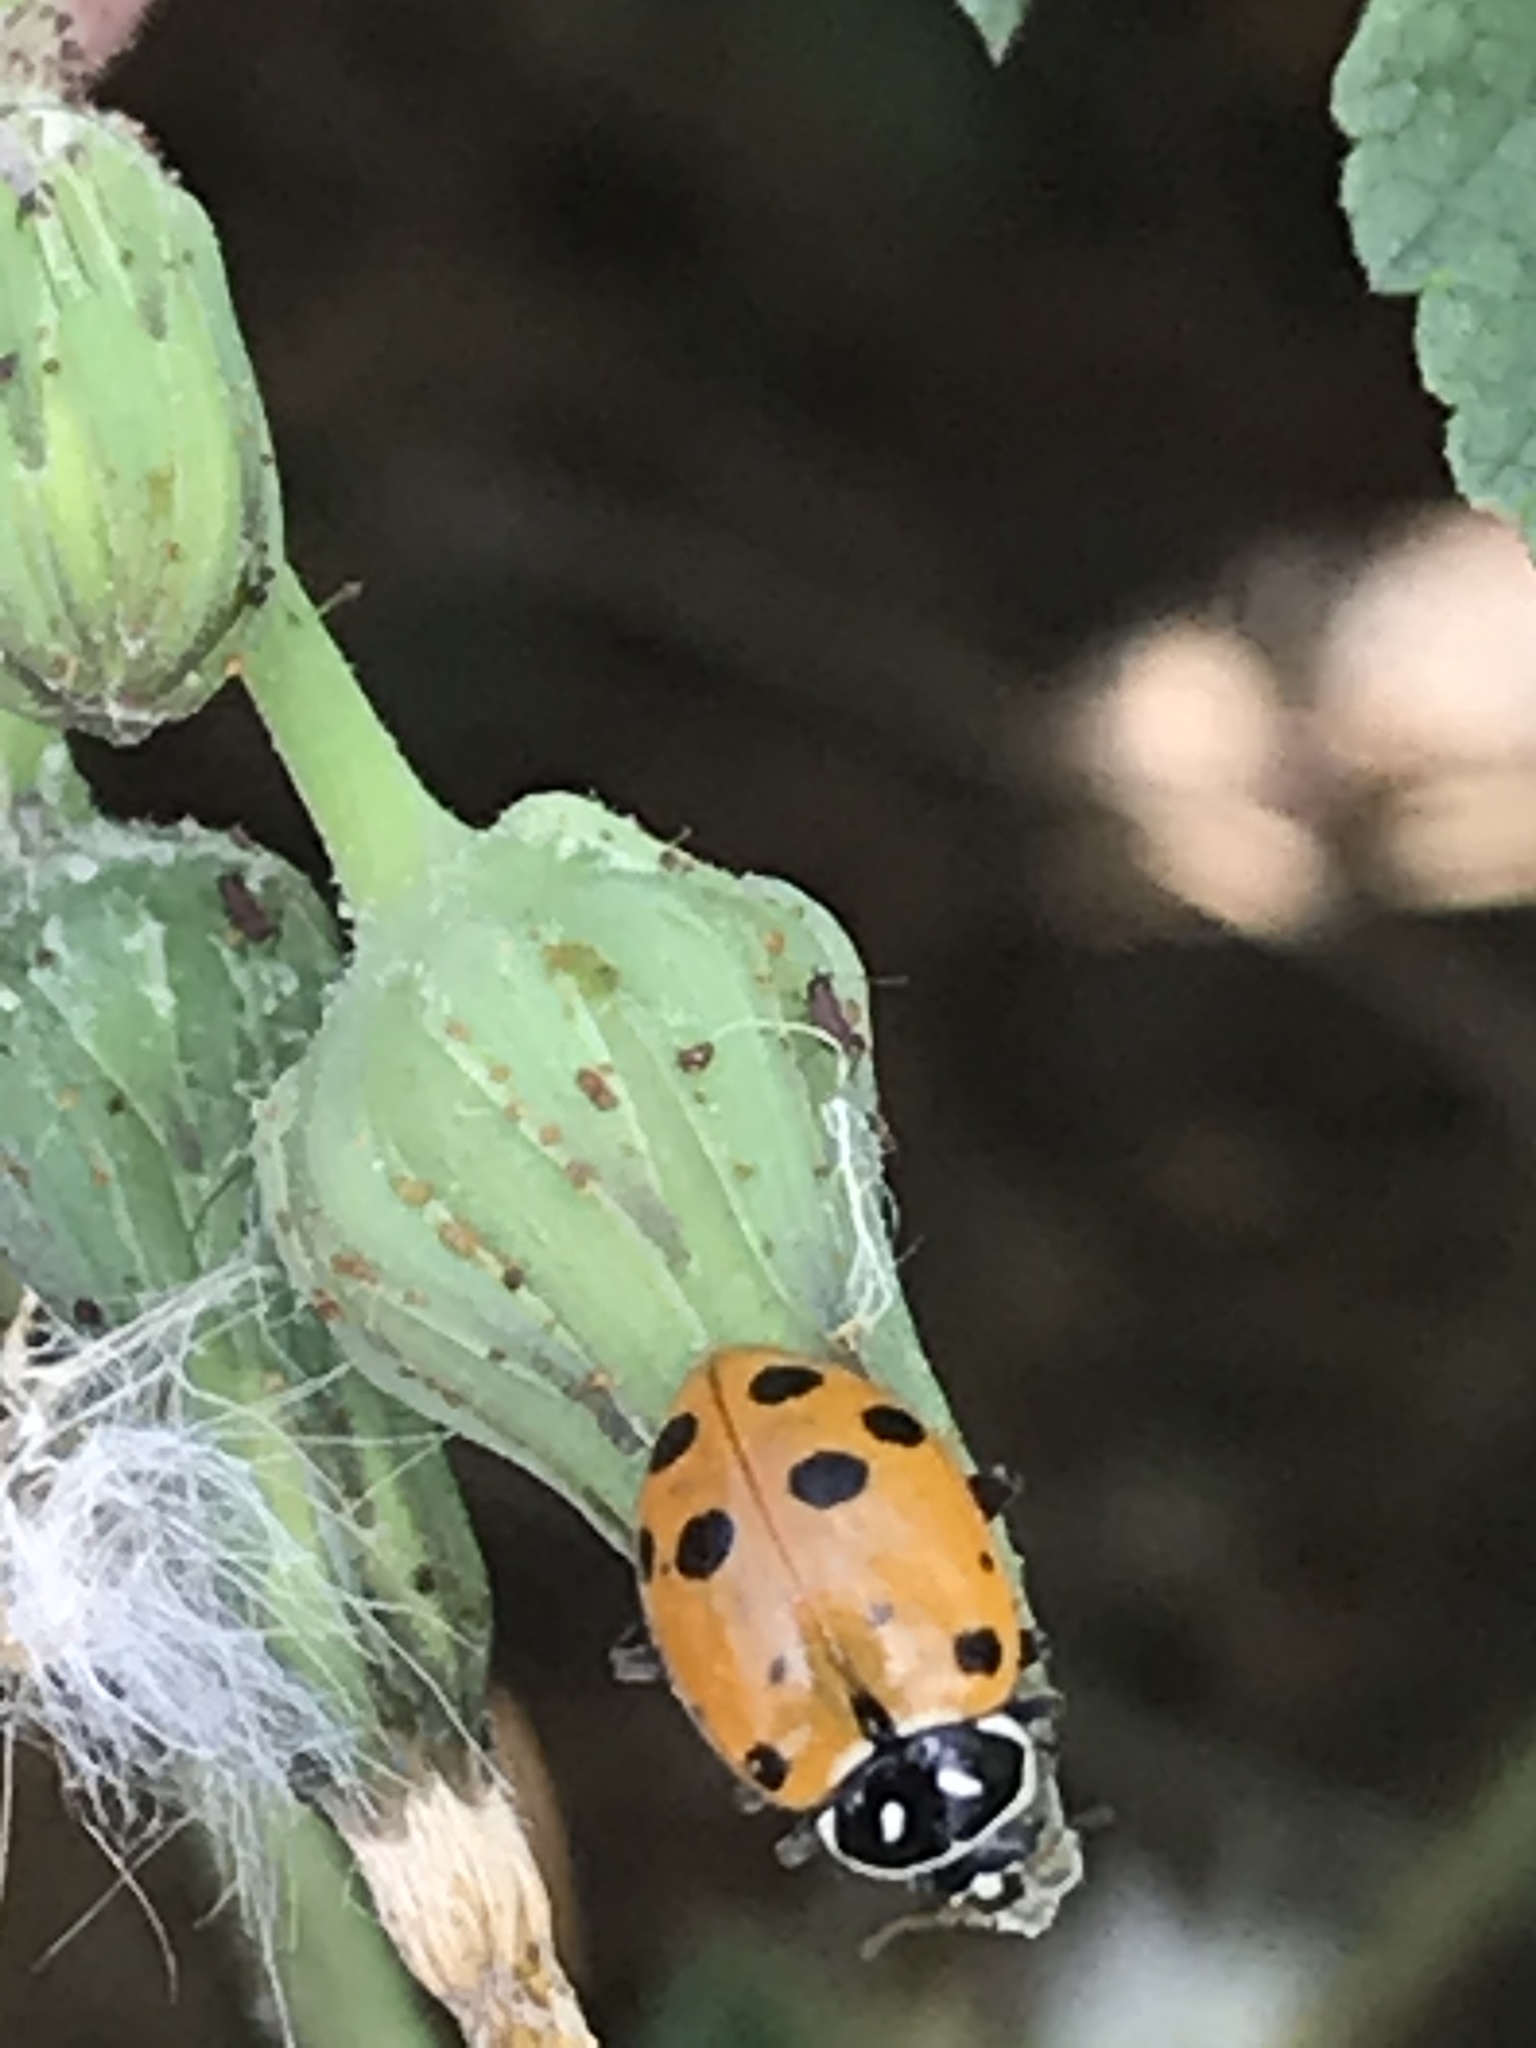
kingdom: Animalia
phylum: Arthropoda
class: Insecta
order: Coleoptera
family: Coccinellidae
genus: Hippodamia
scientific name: Hippodamia convergens
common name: Convergent lady beetle
